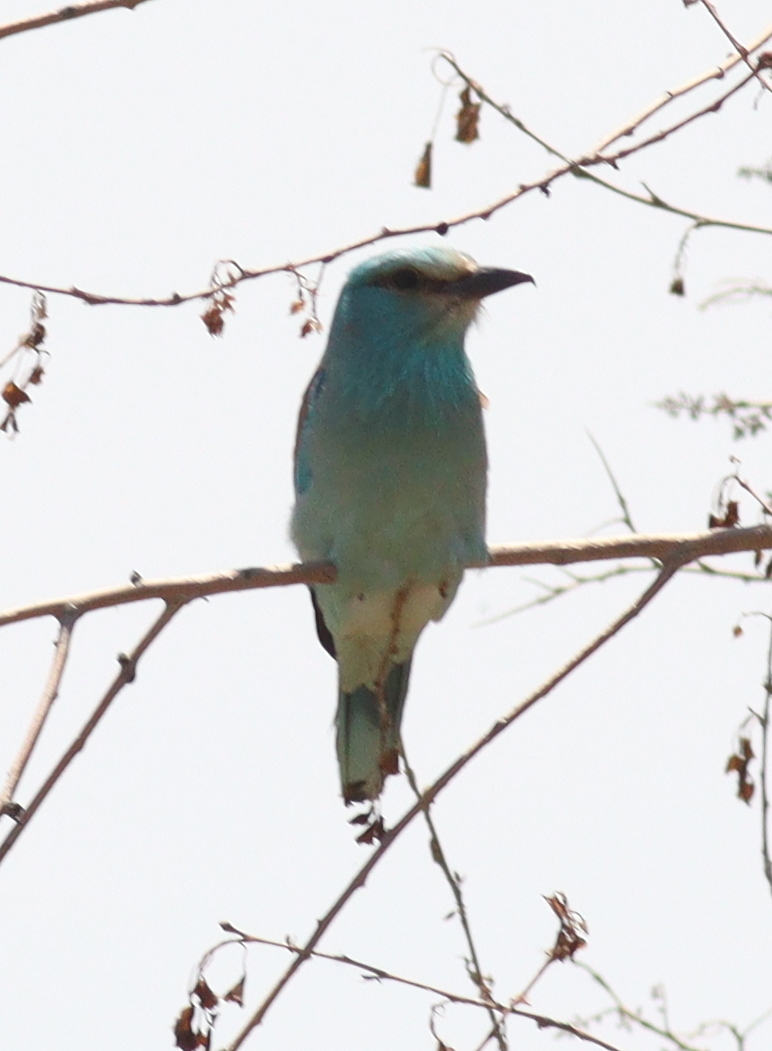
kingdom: Animalia
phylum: Chordata
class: Aves
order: Coraciiformes
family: Coraciidae
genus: Coracias
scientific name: Coracias garrulus
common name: European roller
